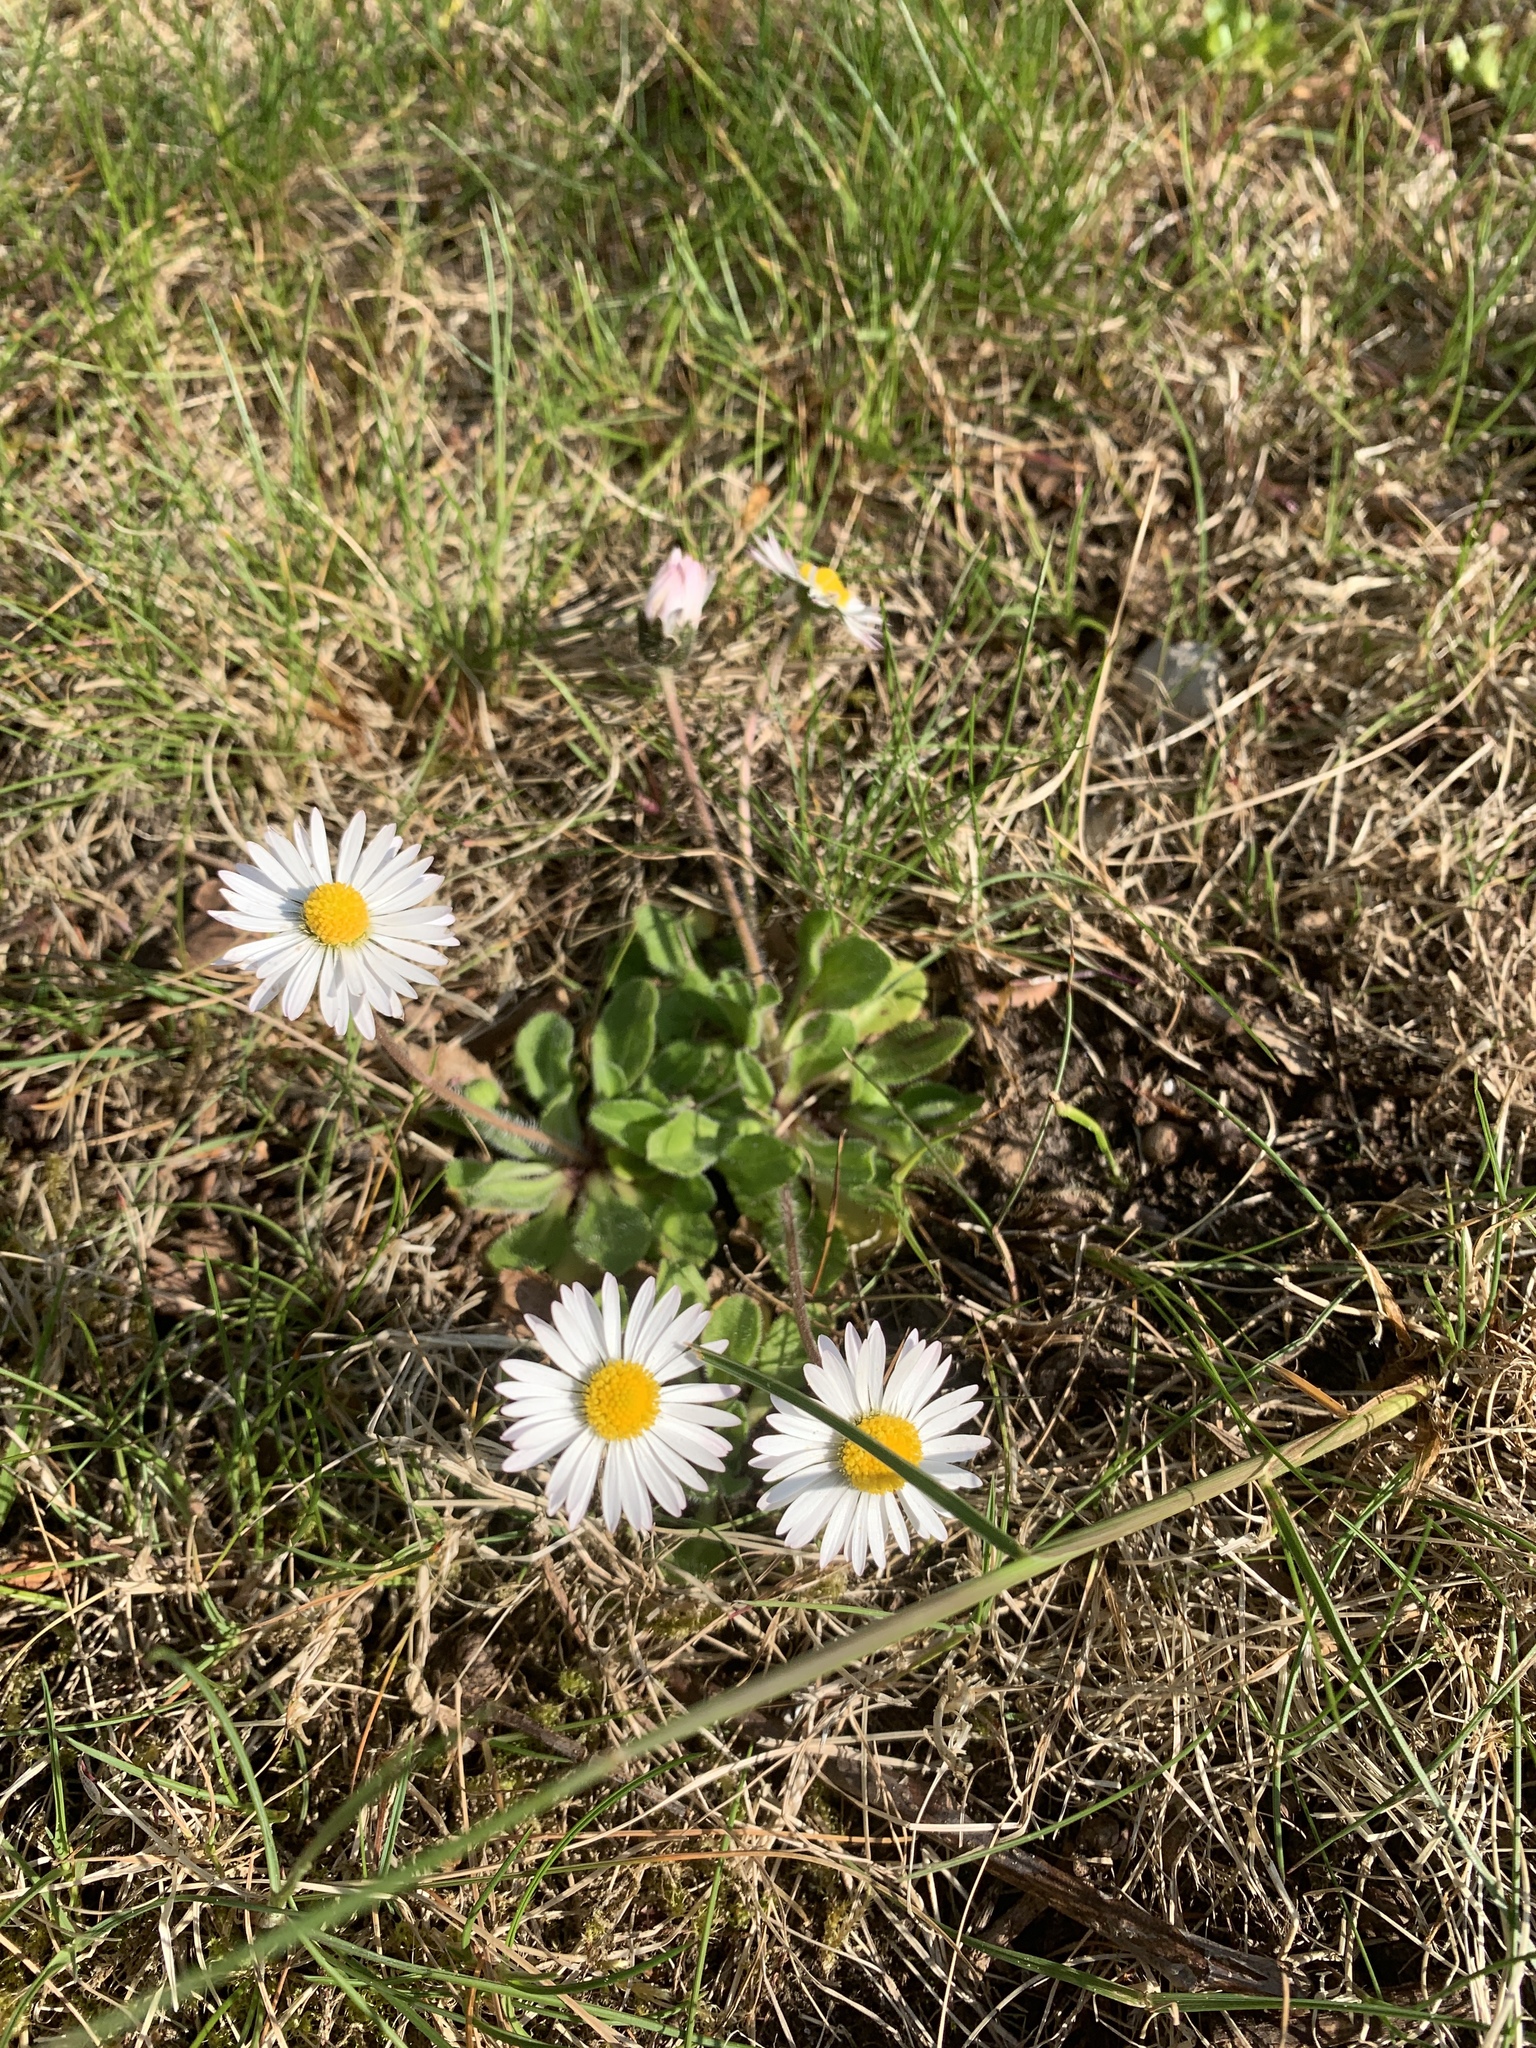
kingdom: Plantae
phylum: Tracheophyta
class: Magnoliopsida
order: Asterales
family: Asteraceae
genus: Bellis
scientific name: Bellis perennis
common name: Lawndaisy
